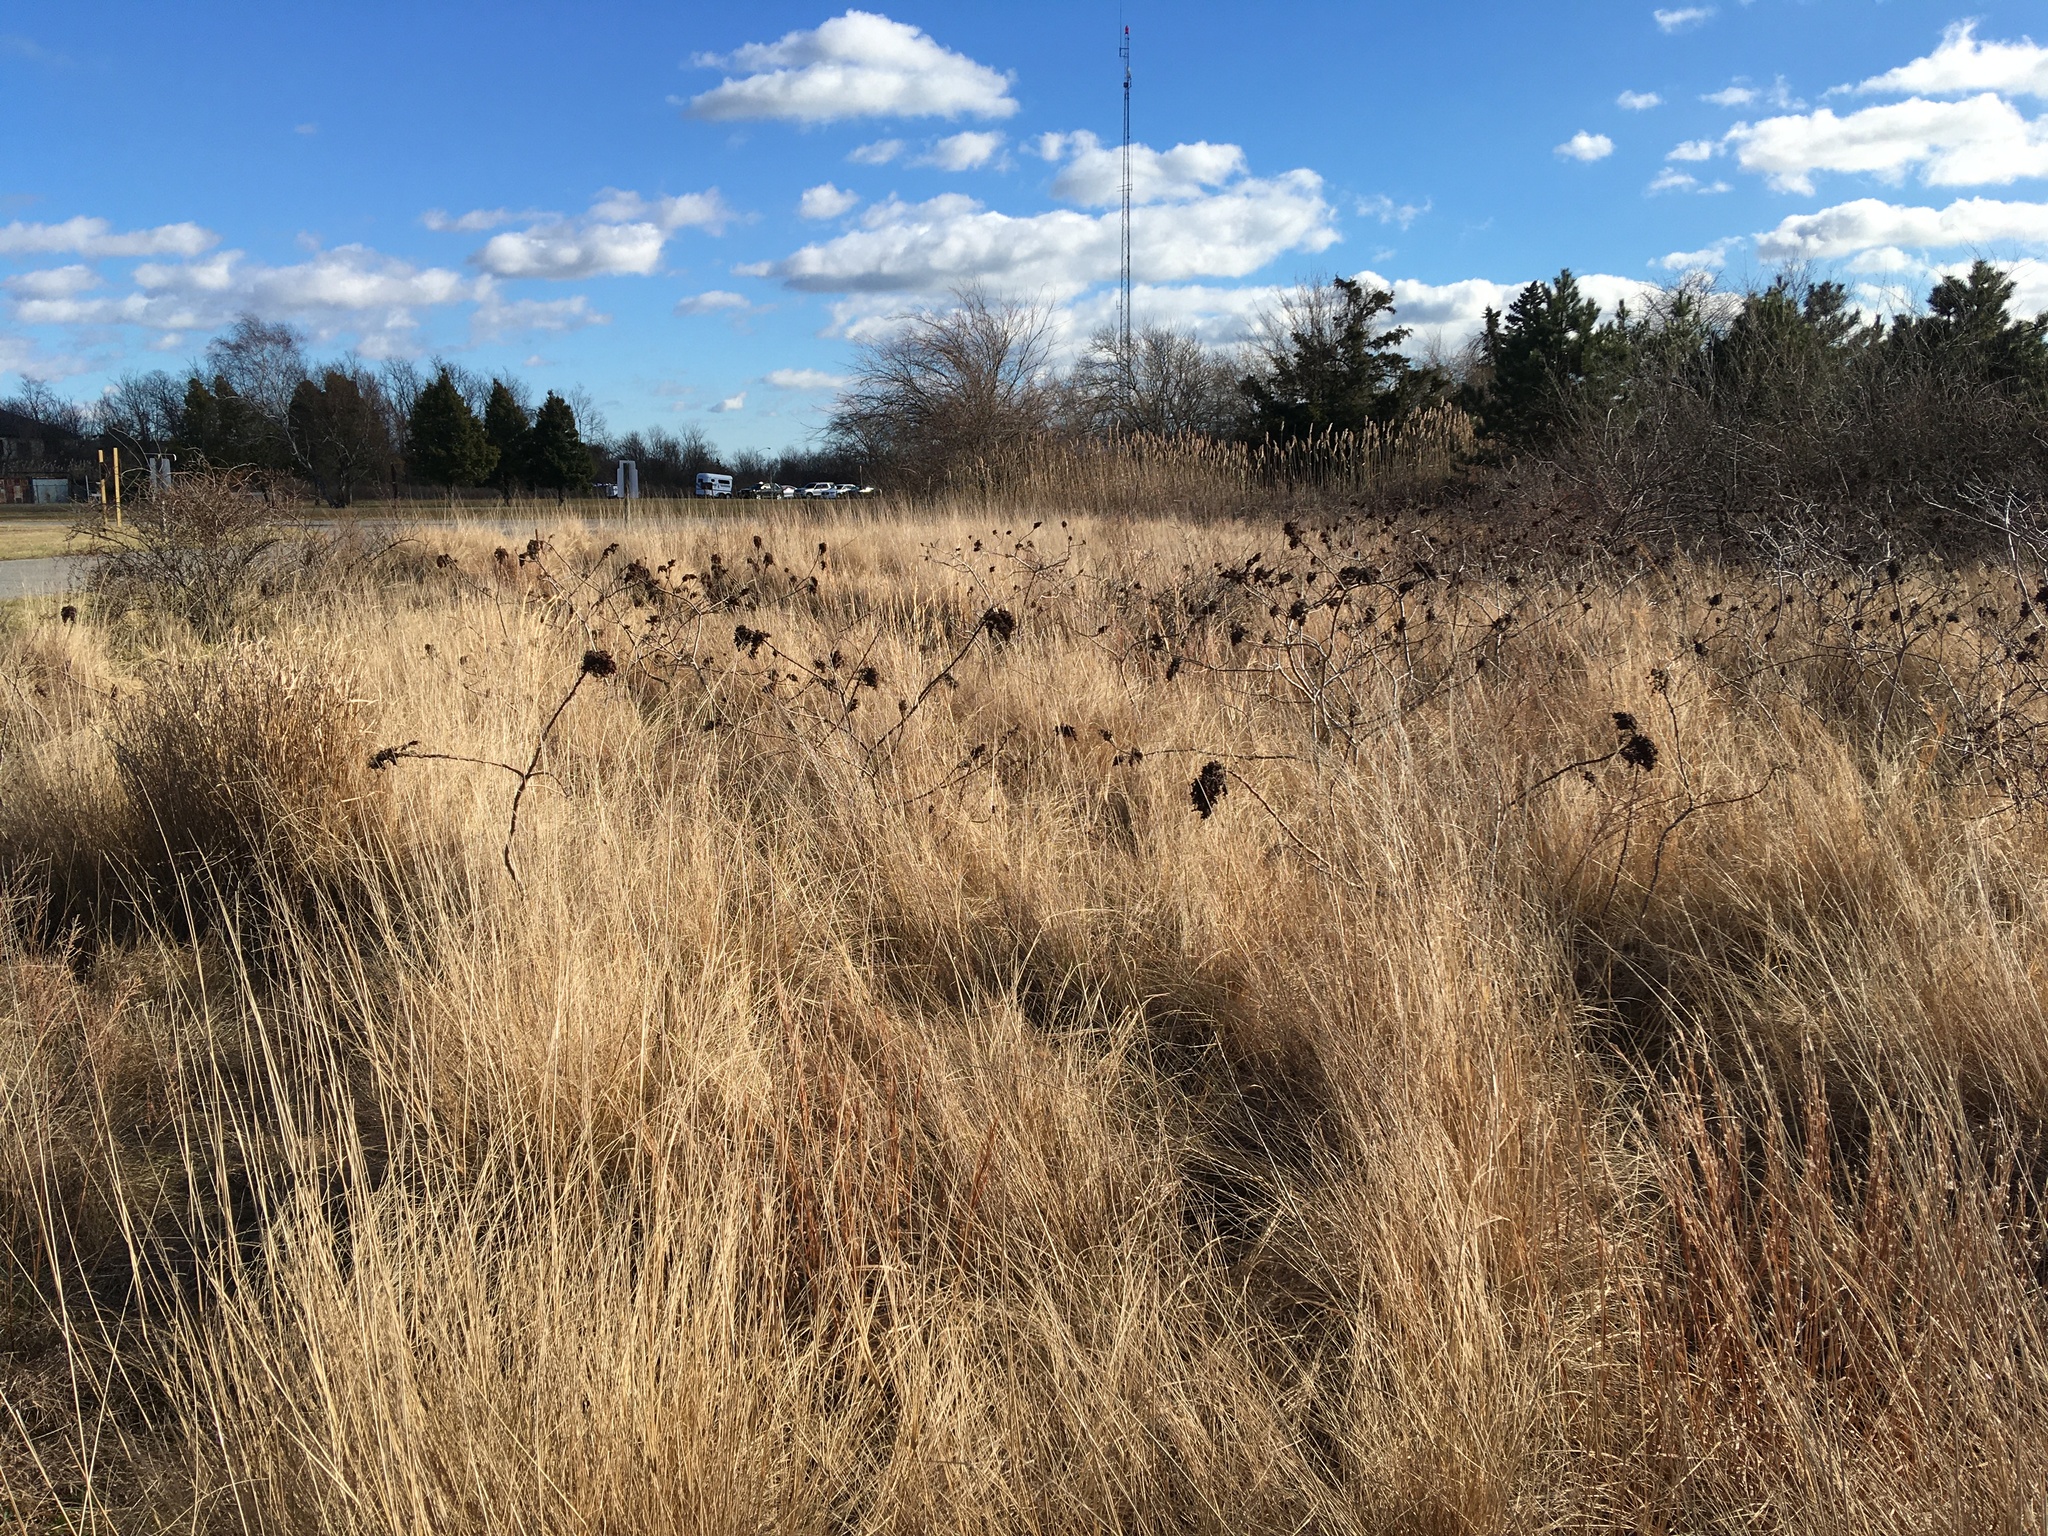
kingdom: Plantae
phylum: Tracheophyta
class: Magnoliopsida
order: Sapindales
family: Anacardiaceae
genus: Rhus
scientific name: Rhus copallina
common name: Shining sumac
